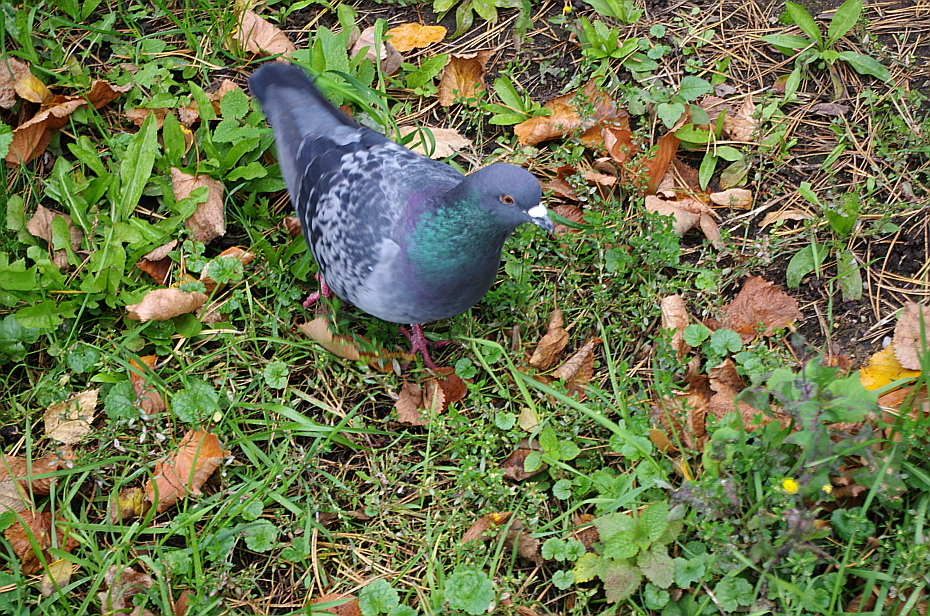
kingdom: Animalia
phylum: Chordata
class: Aves
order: Columbiformes
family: Columbidae
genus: Columba
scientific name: Columba livia
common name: Rock pigeon
